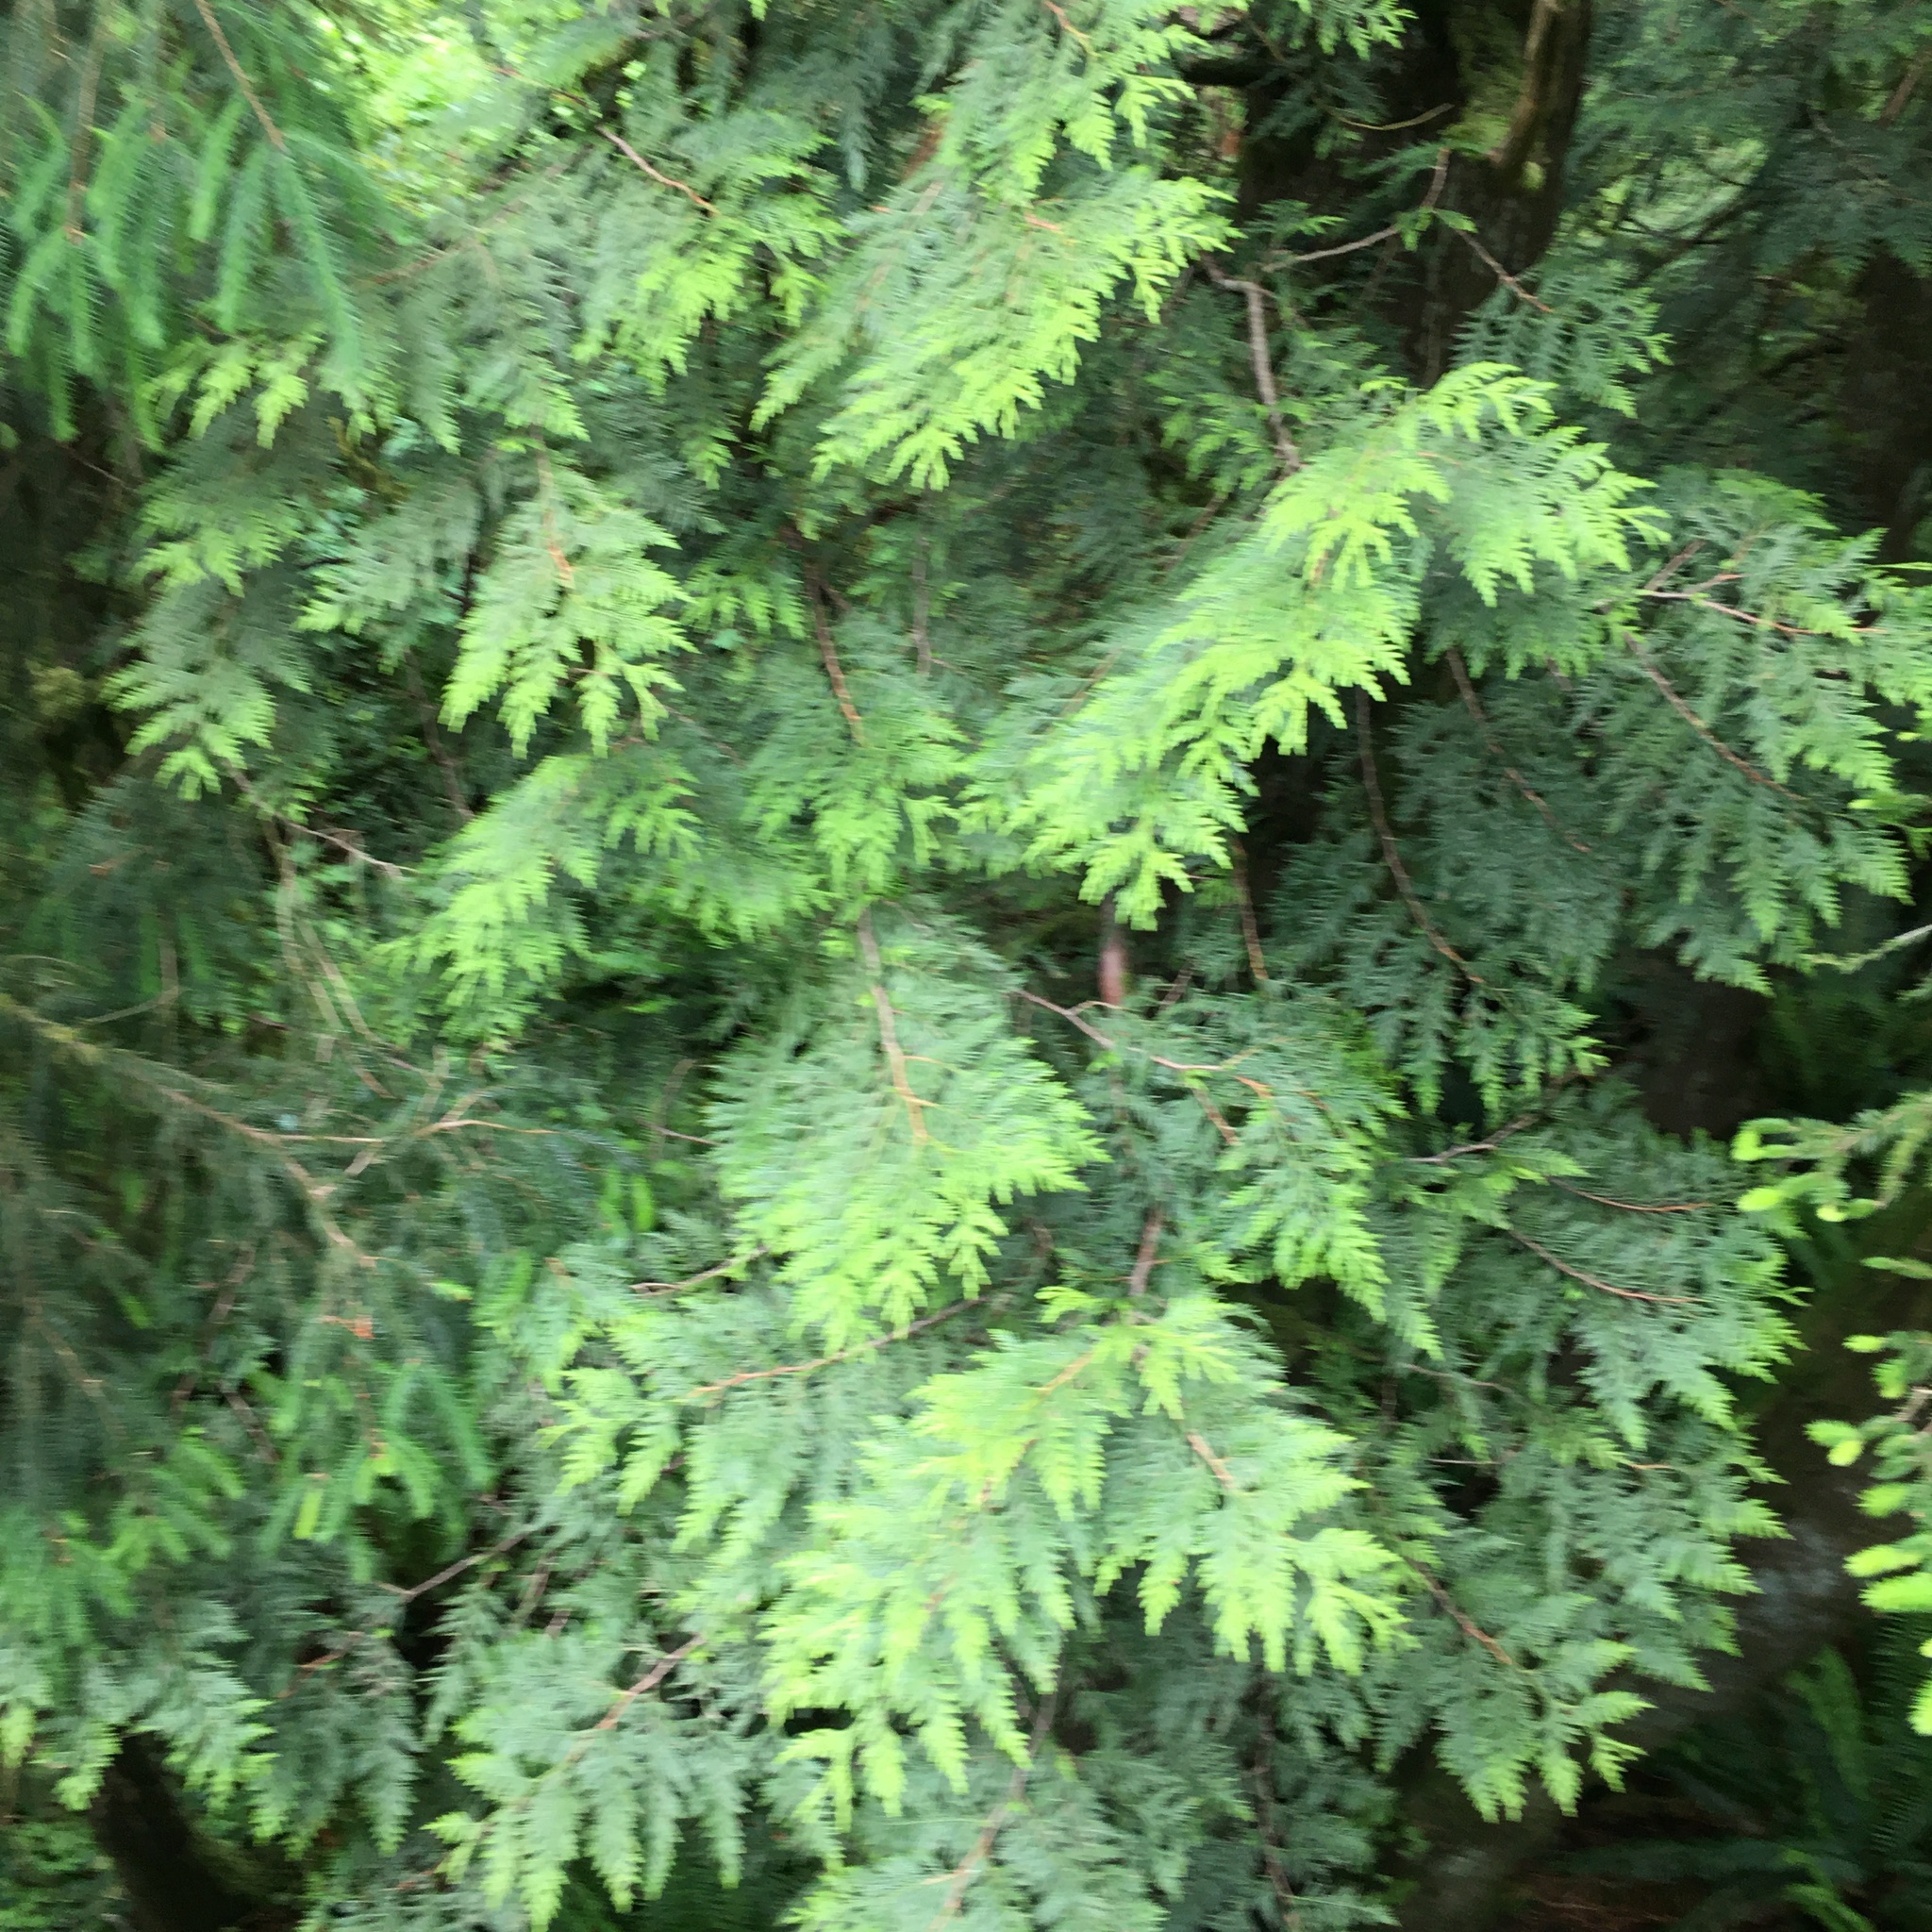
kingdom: Plantae
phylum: Tracheophyta
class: Pinopsida
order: Pinales
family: Cupressaceae
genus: Thuja
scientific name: Thuja plicata
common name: Western red-cedar
